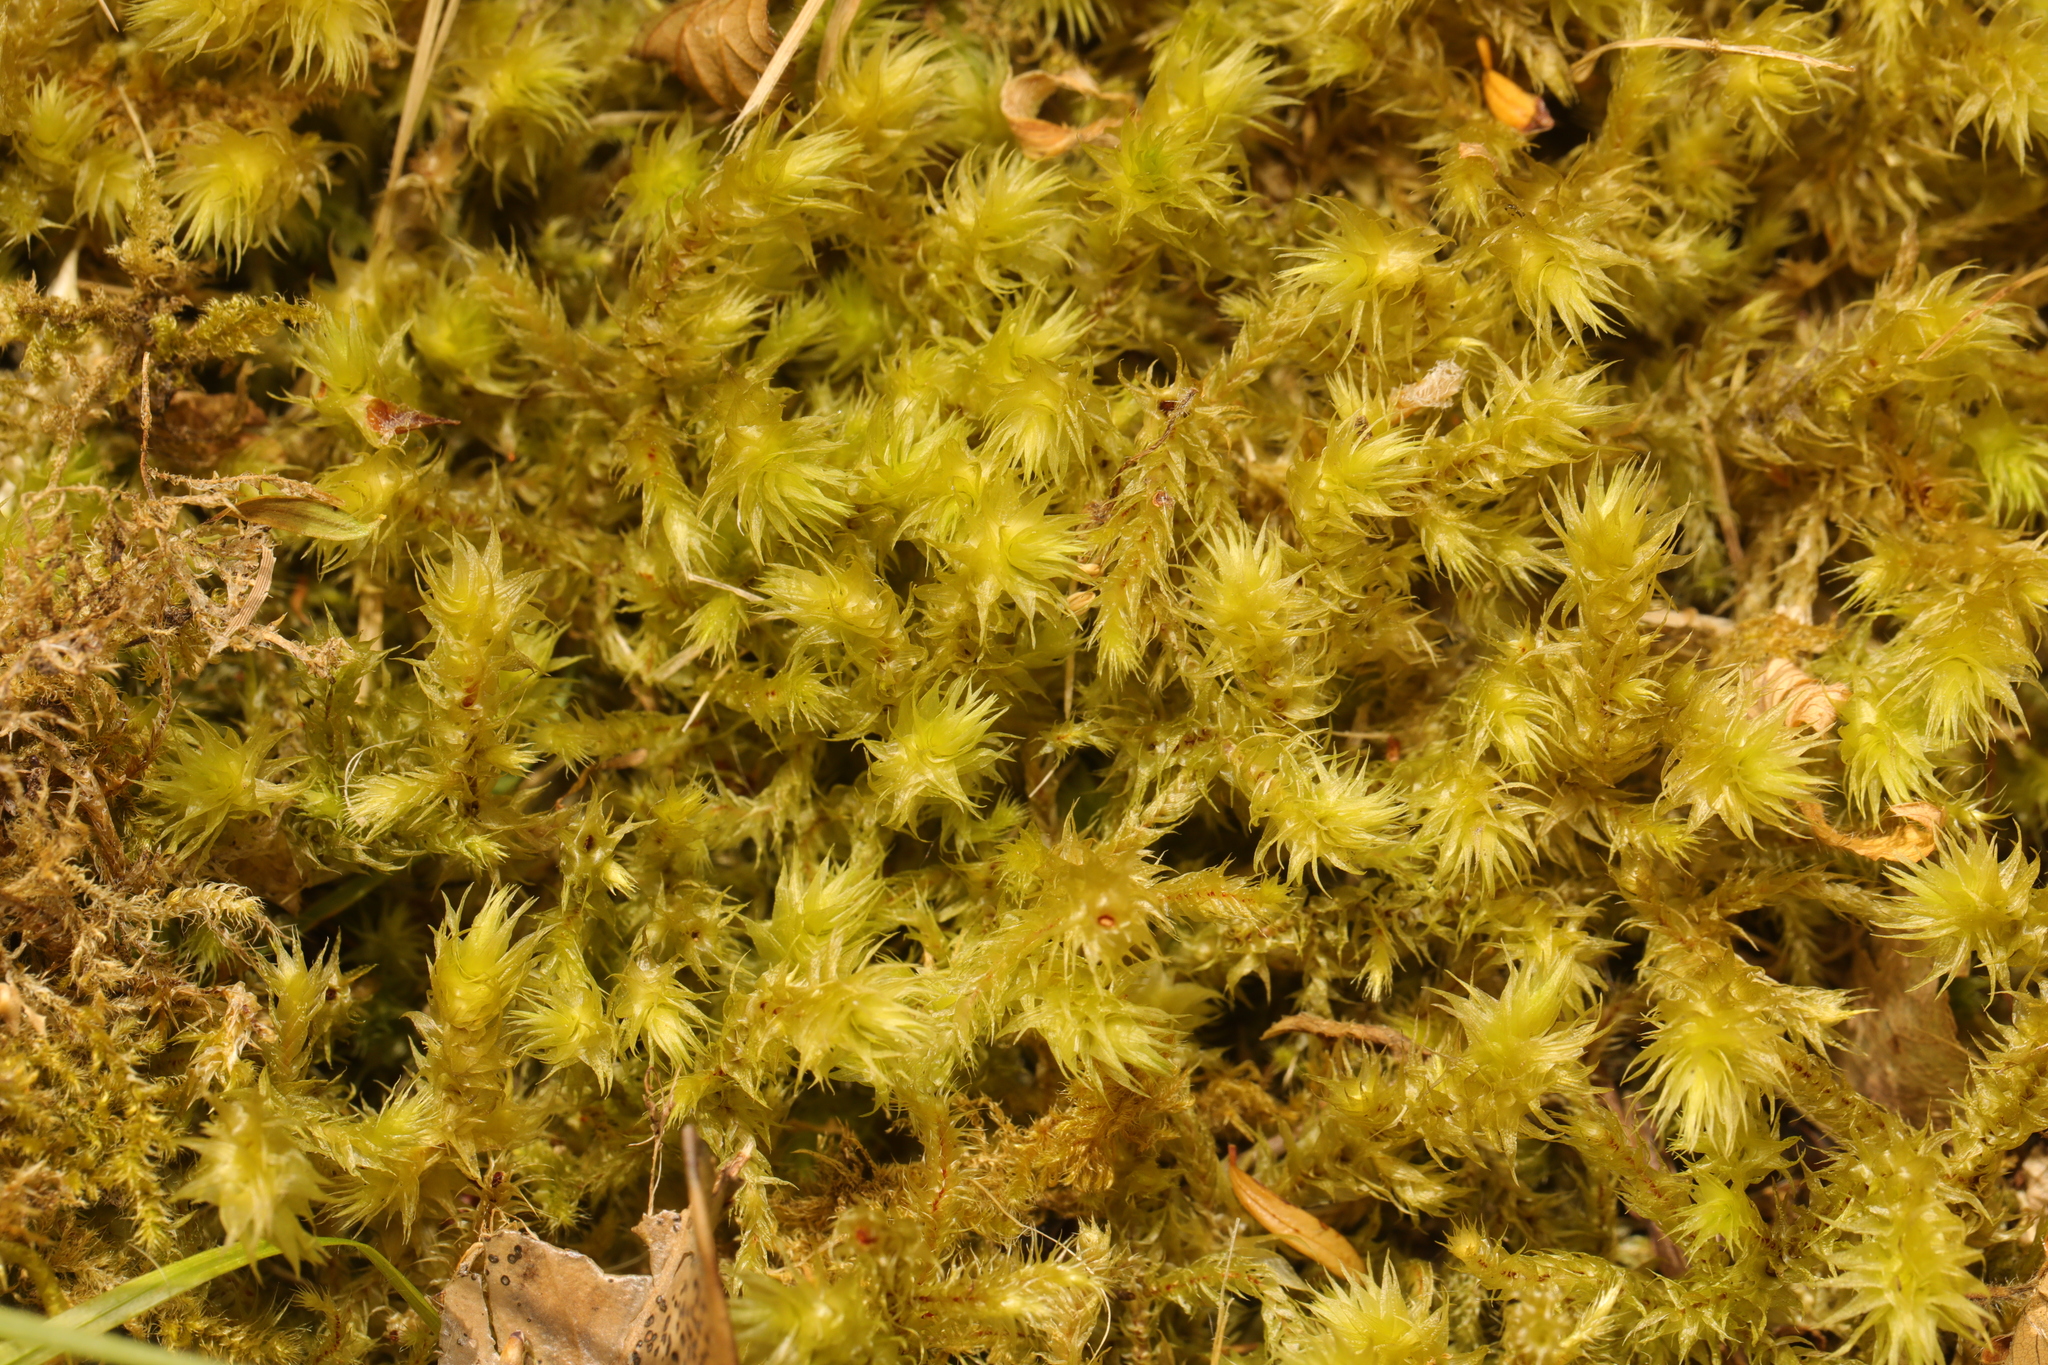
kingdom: Plantae
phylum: Bryophyta
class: Bryopsida
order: Hypnales
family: Hylocomiaceae
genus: Hylocomiadelphus
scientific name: Hylocomiadelphus triquetrus
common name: Rough goose neck moss
